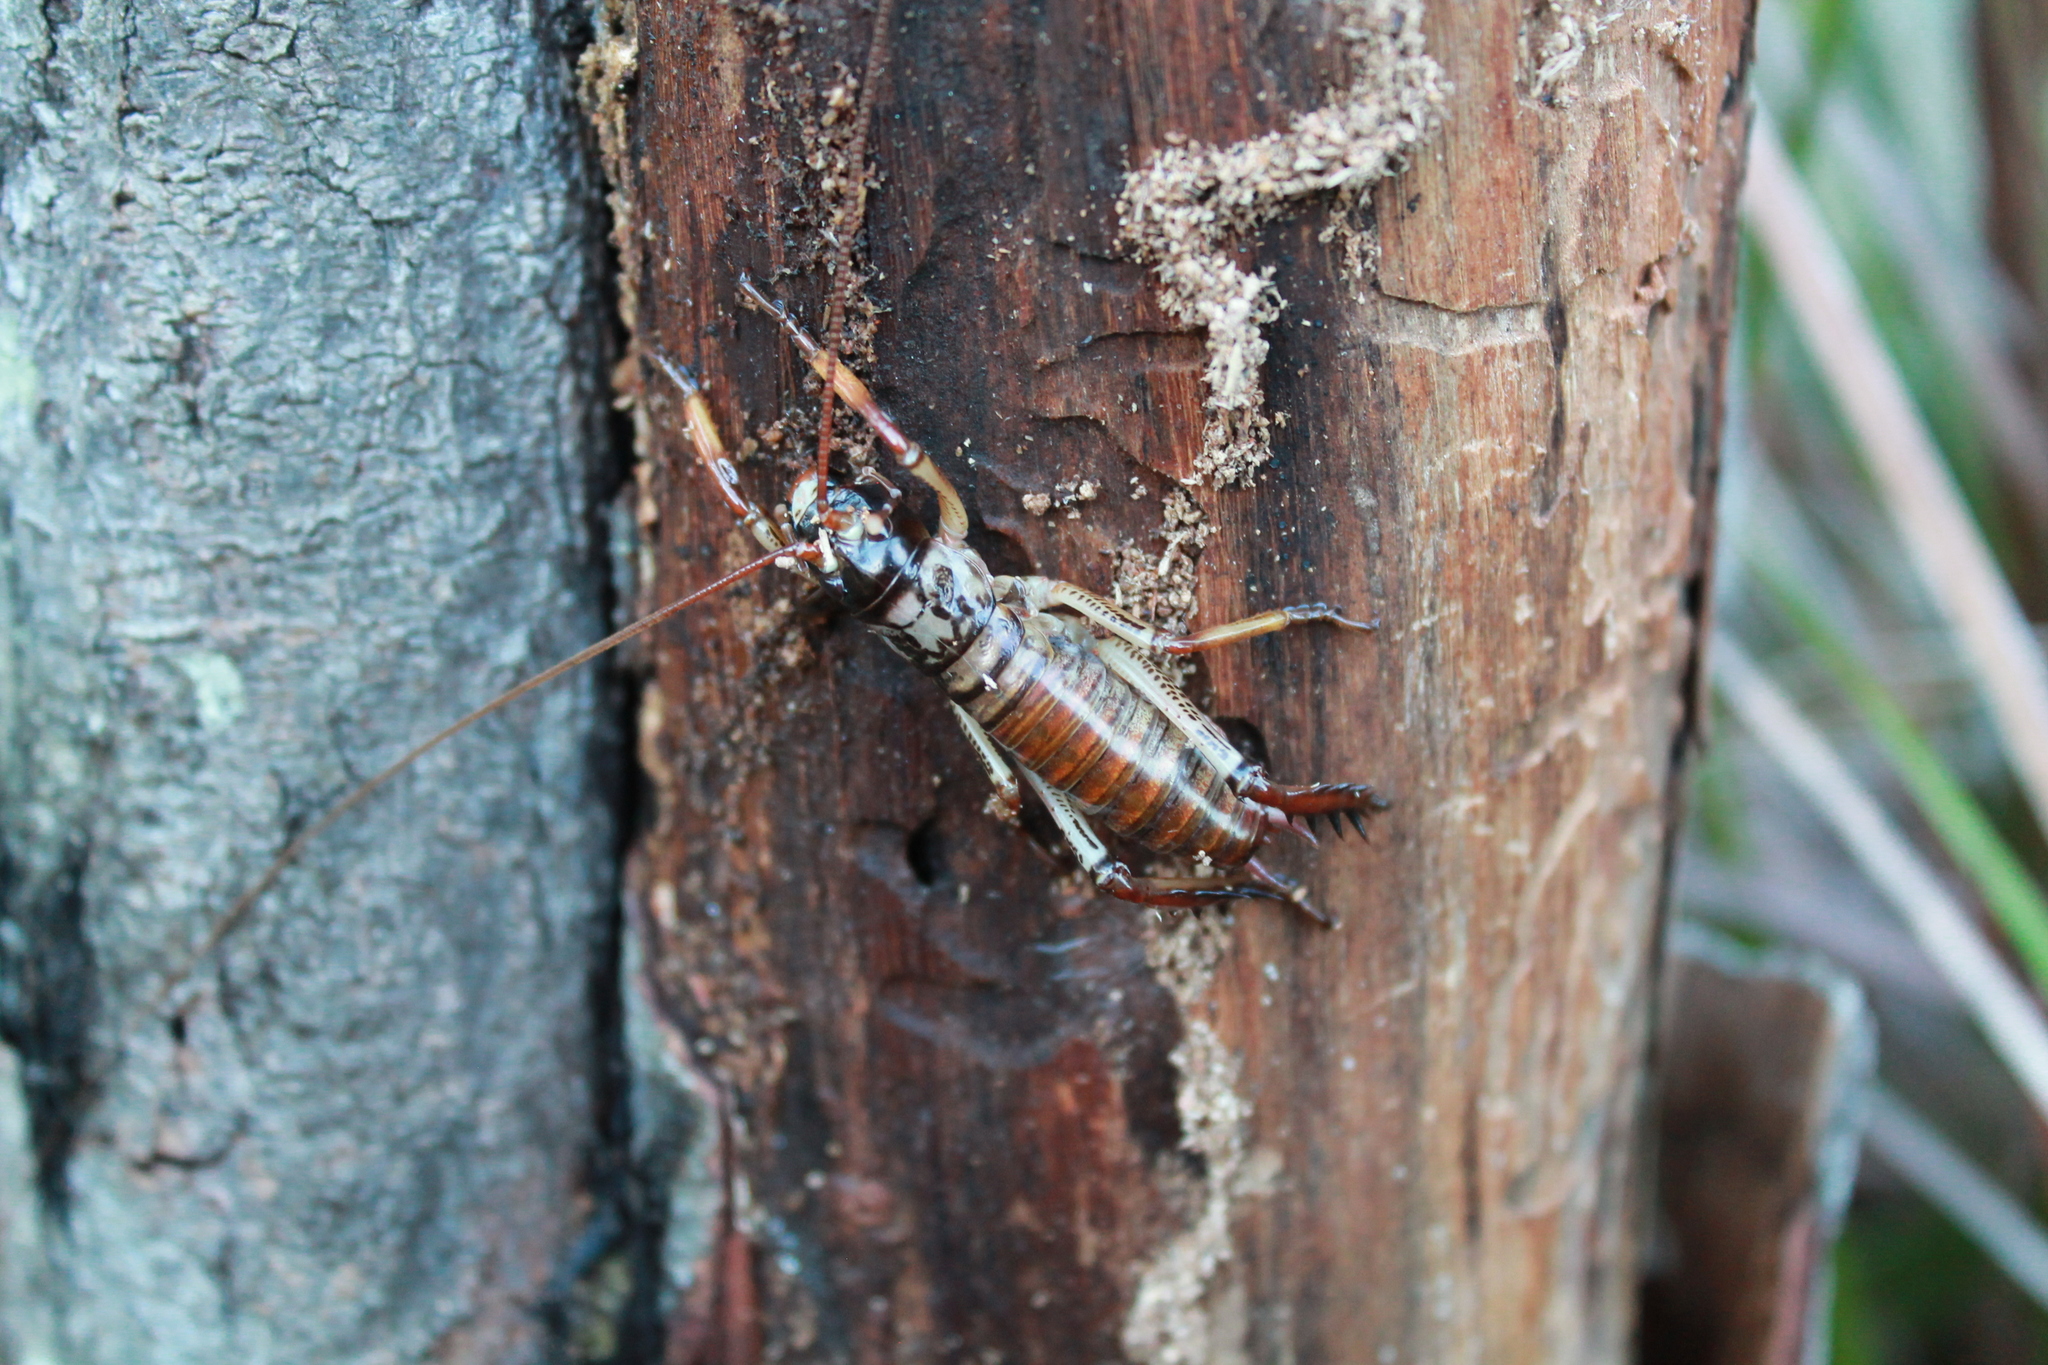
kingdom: Animalia
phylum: Arthropoda
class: Insecta
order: Orthoptera
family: Anostostomatidae
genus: Hemideina
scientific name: Hemideina thoracica
